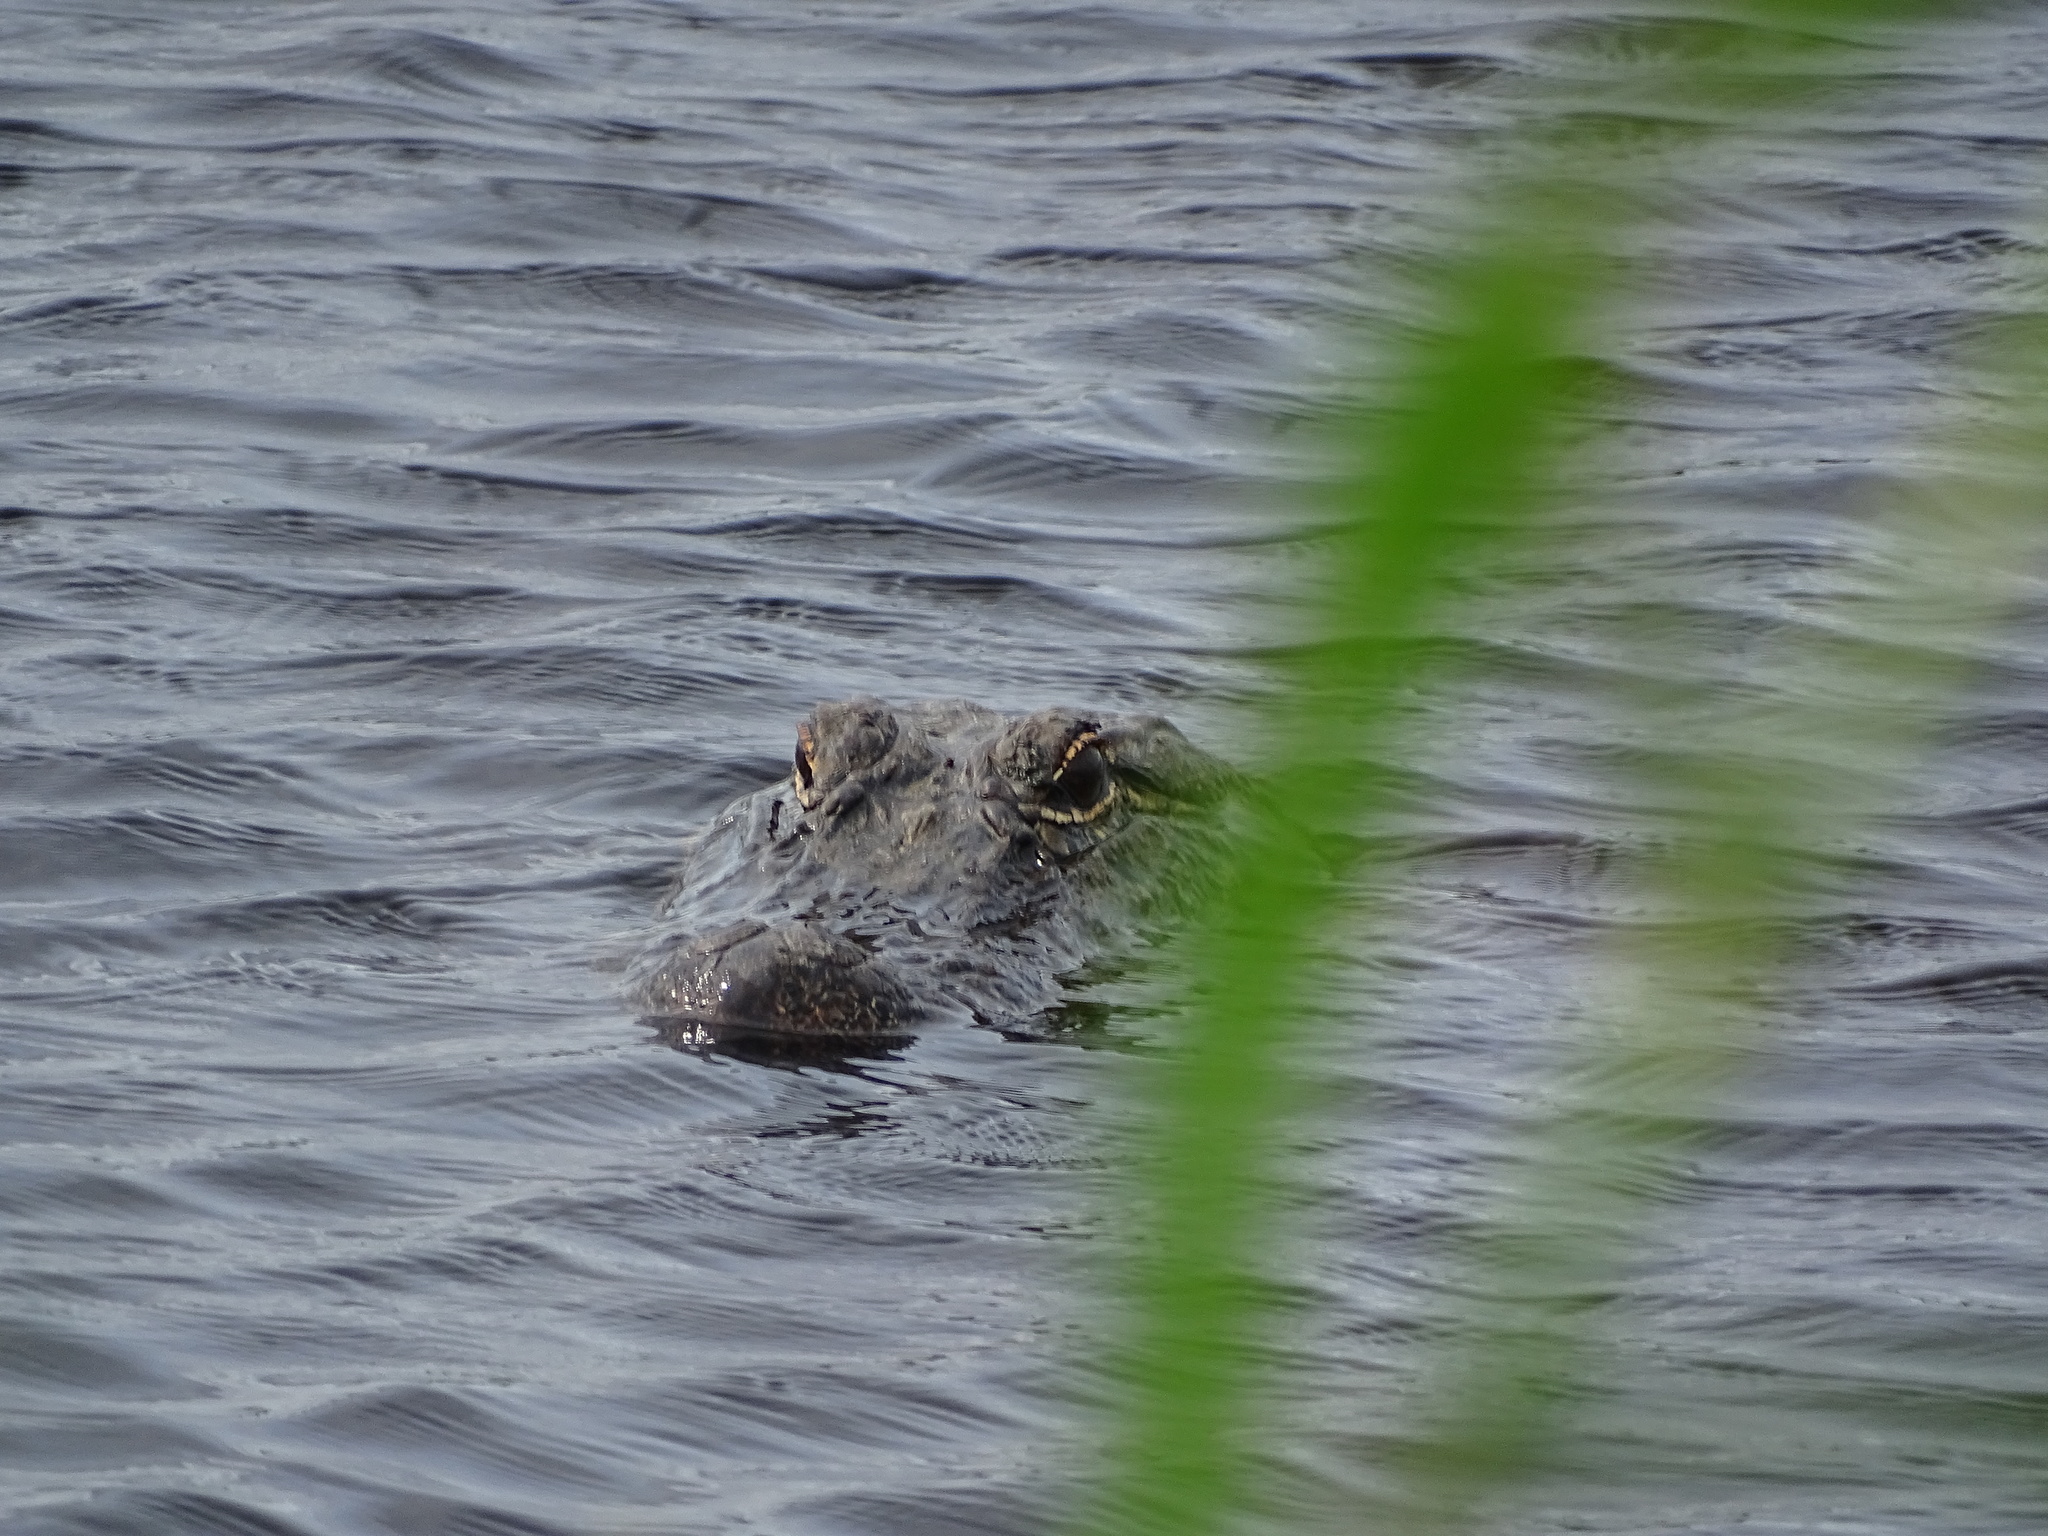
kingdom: Animalia
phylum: Chordata
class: Crocodylia
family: Alligatoridae
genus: Alligator
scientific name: Alligator mississippiensis
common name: American alligator
